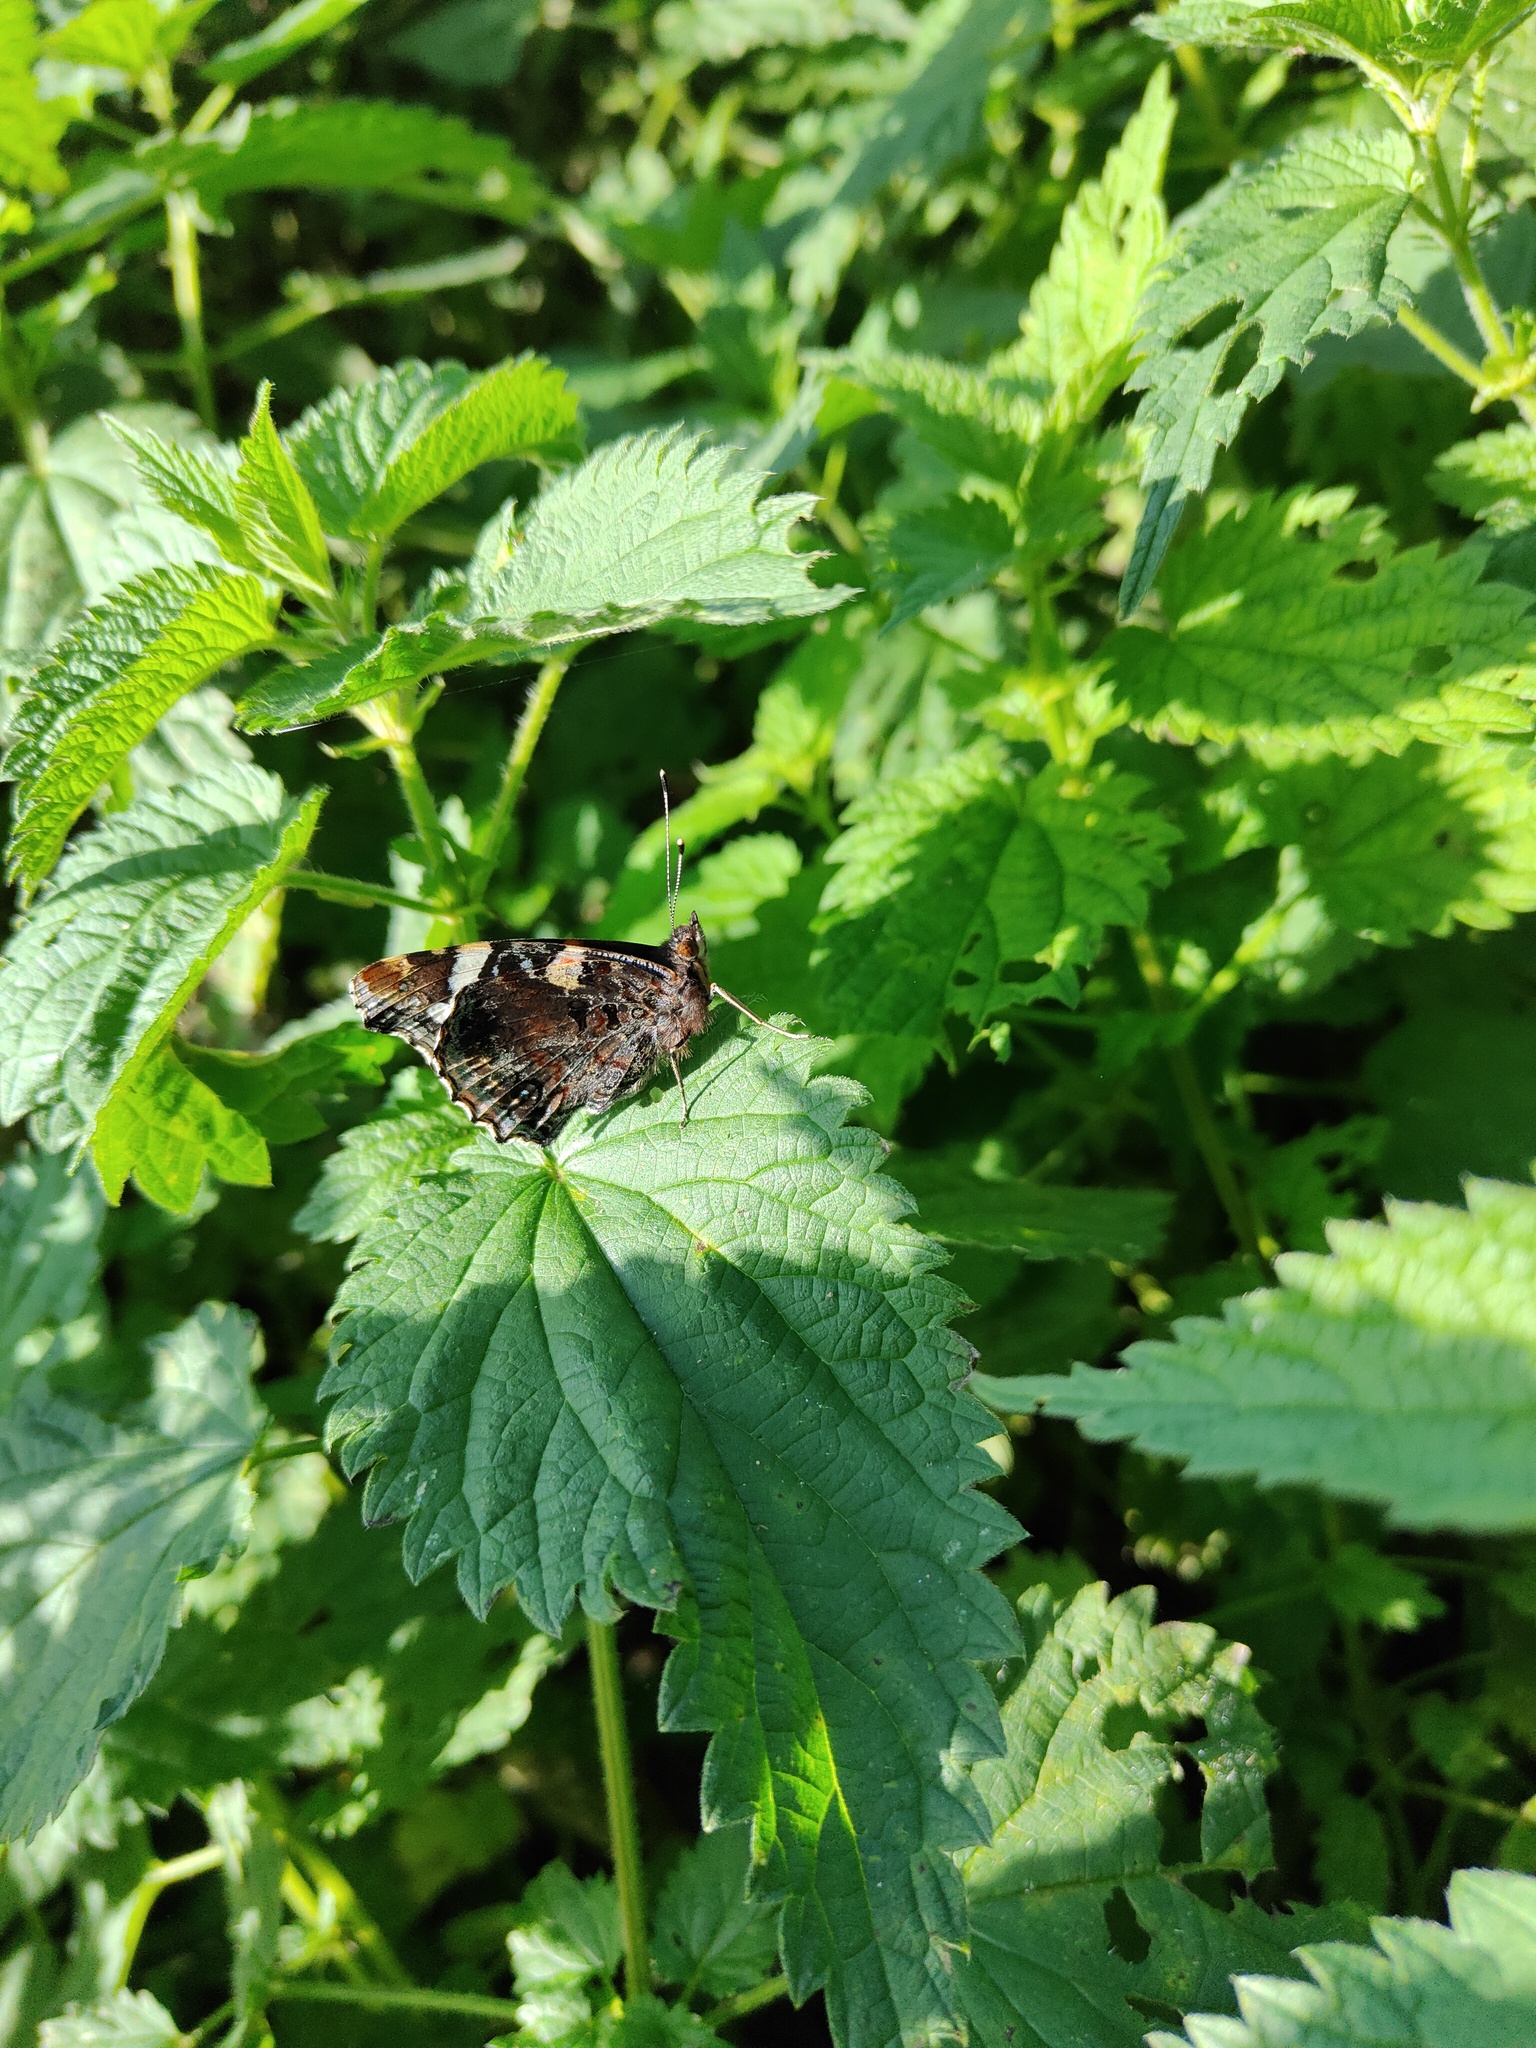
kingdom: Animalia
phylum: Arthropoda
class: Insecta
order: Lepidoptera
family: Nymphalidae
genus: Vanessa
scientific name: Vanessa atalanta
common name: Red admiral
